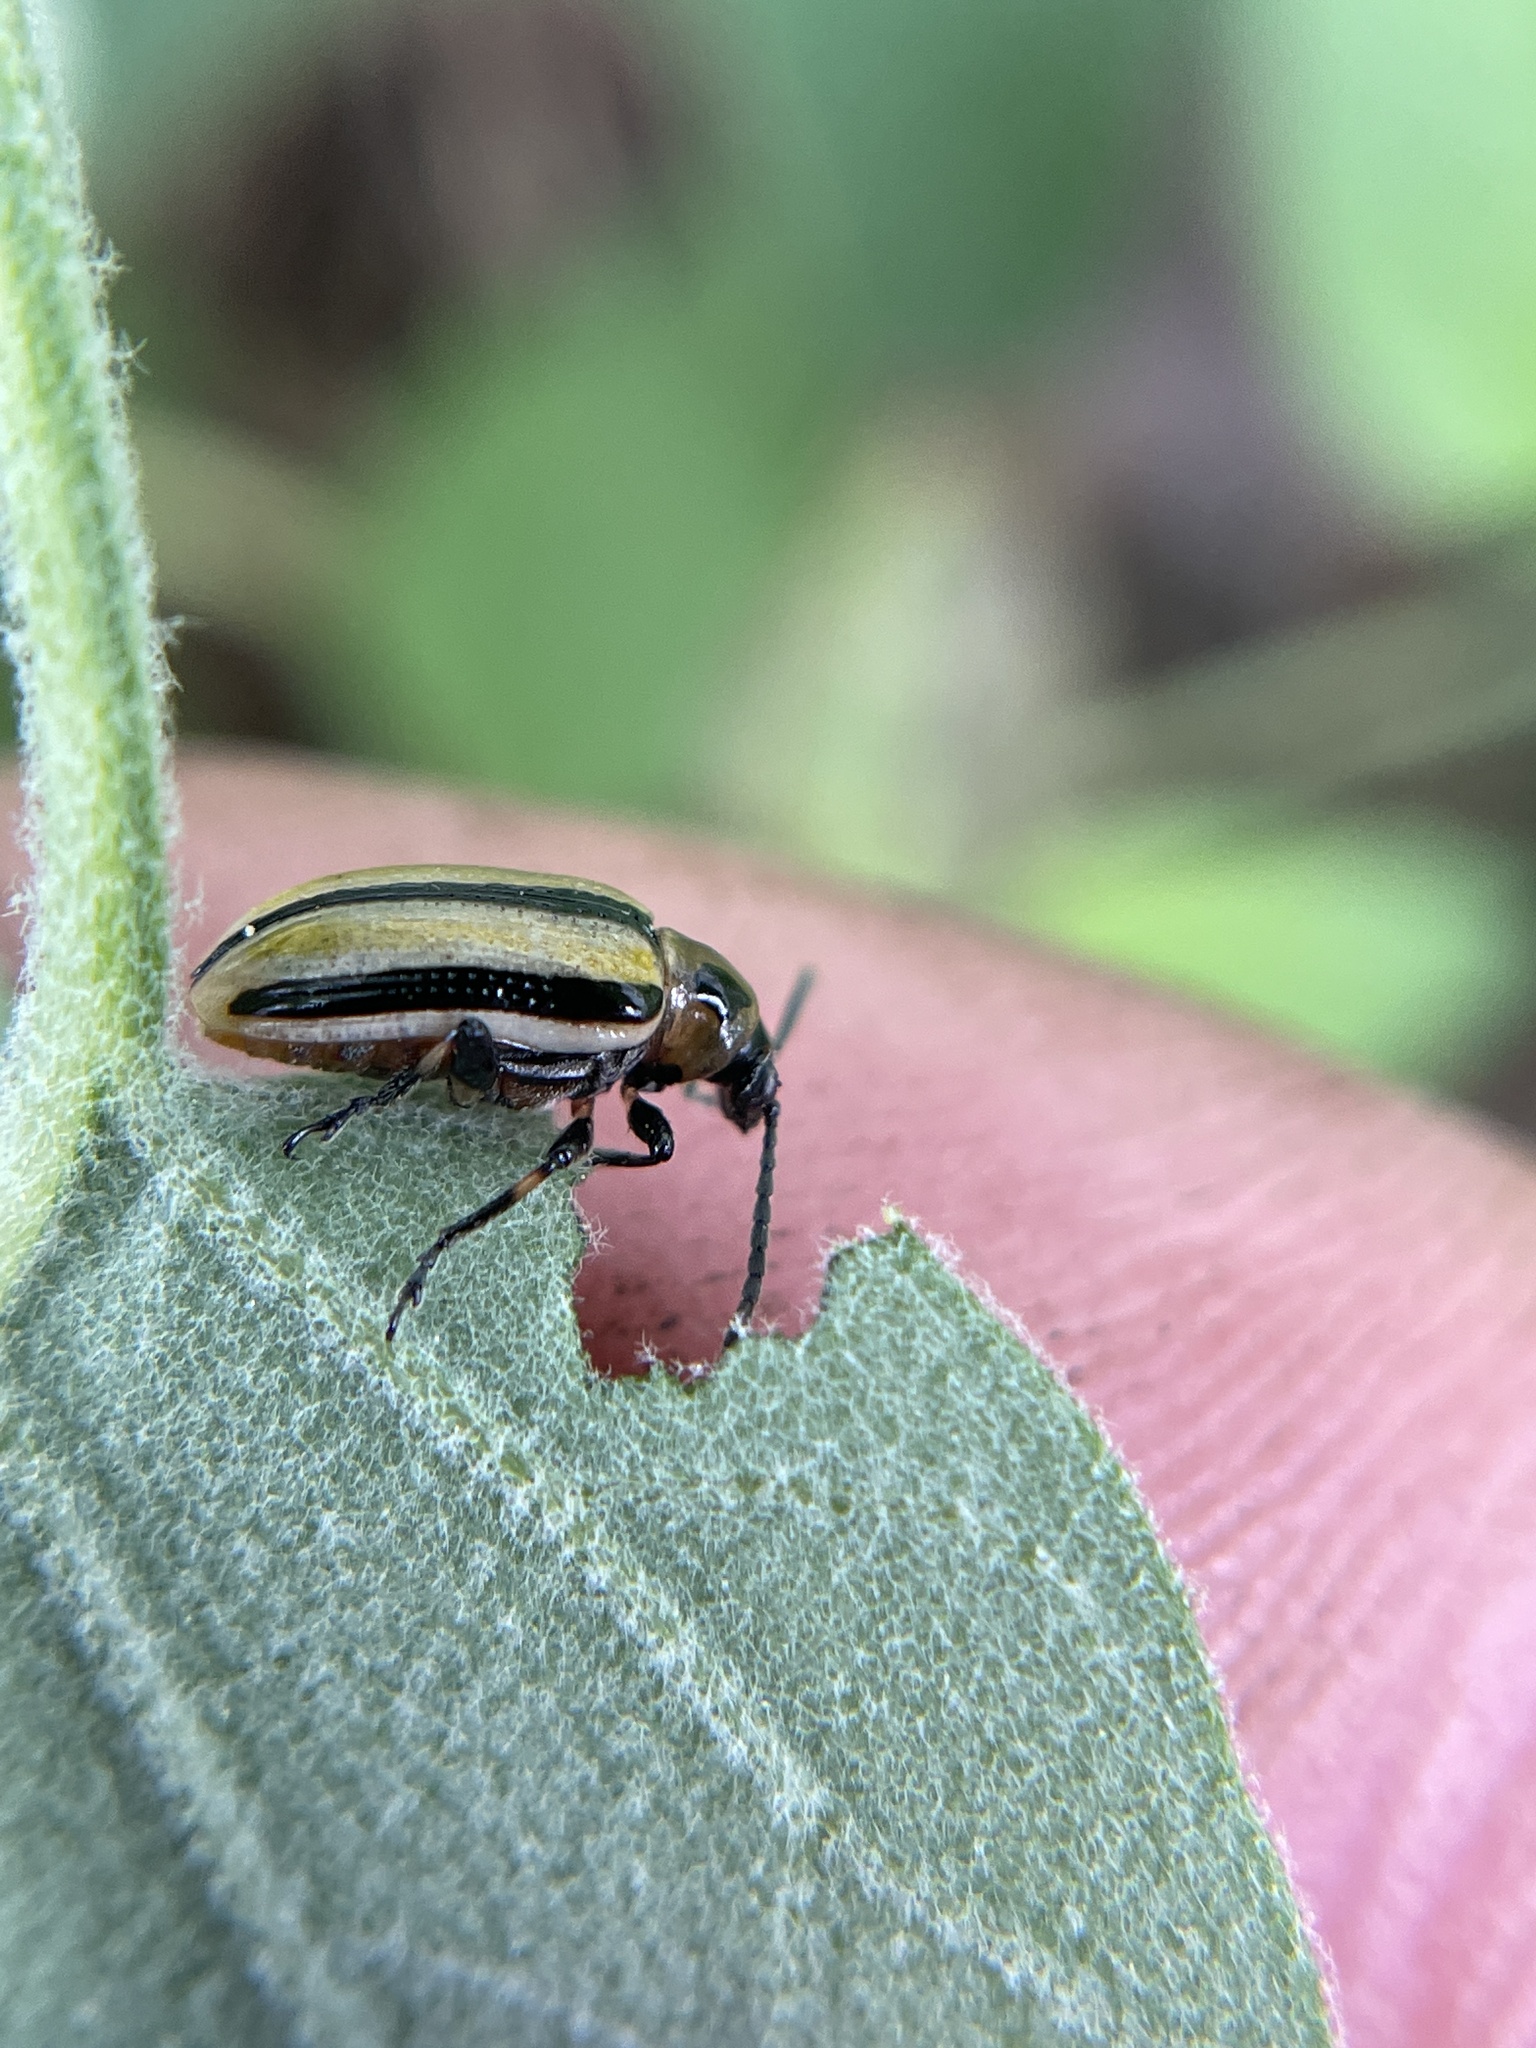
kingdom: Animalia
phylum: Arthropoda
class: Insecta
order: Coleoptera
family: Chrysomelidae
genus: Lema
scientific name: Lema trivittata
